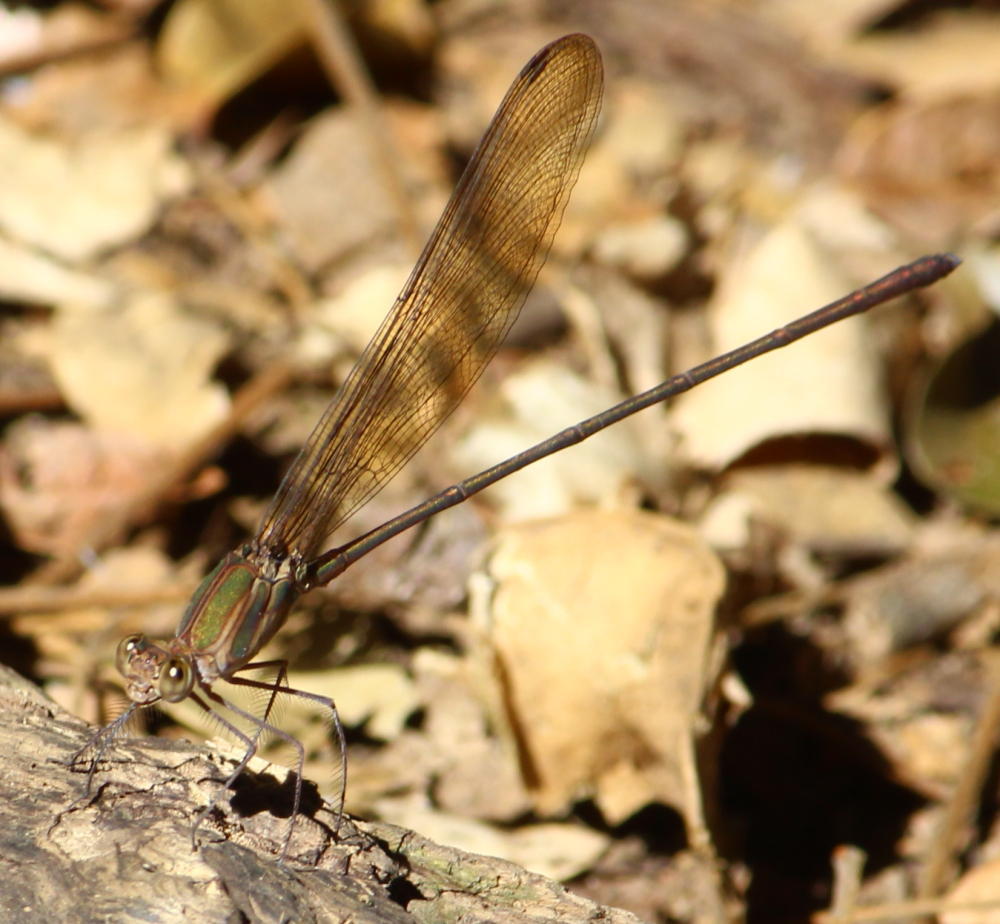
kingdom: Animalia
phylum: Arthropoda
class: Insecta
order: Odonata
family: Calopterygidae
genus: Phaon
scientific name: Phaon iridipennis
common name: Glistening demoiselle
